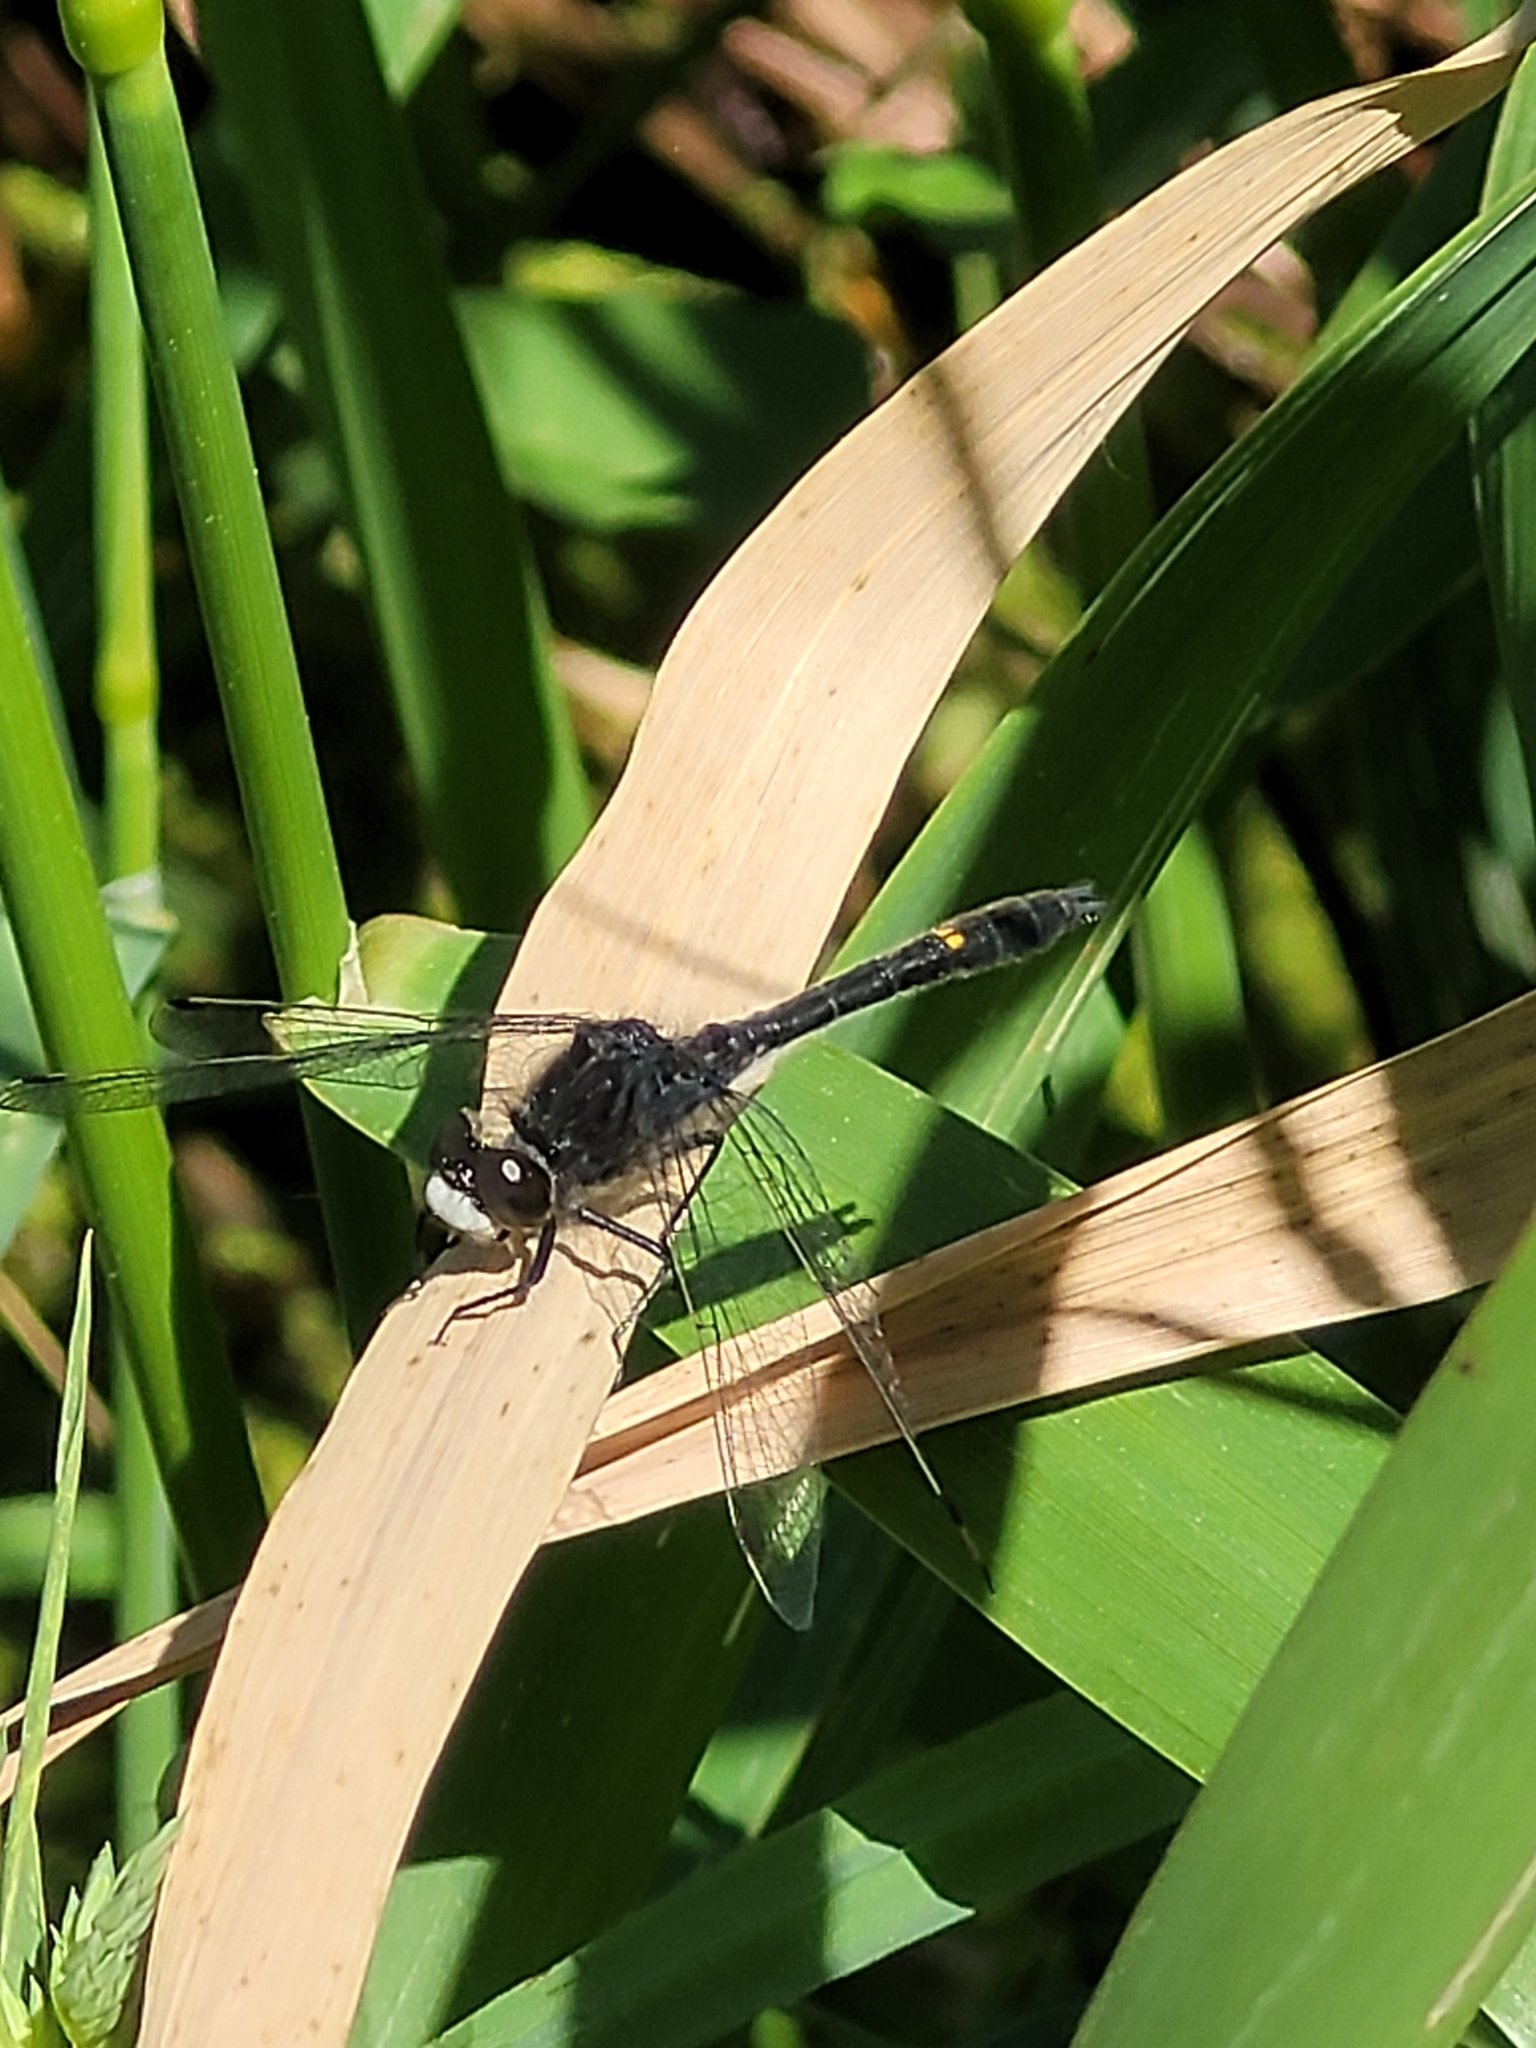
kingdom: Animalia
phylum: Arthropoda
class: Insecta
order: Odonata
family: Libellulidae
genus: Leucorrhinia
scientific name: Leucorrhinia intacta
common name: Dot-tailed whiteface
